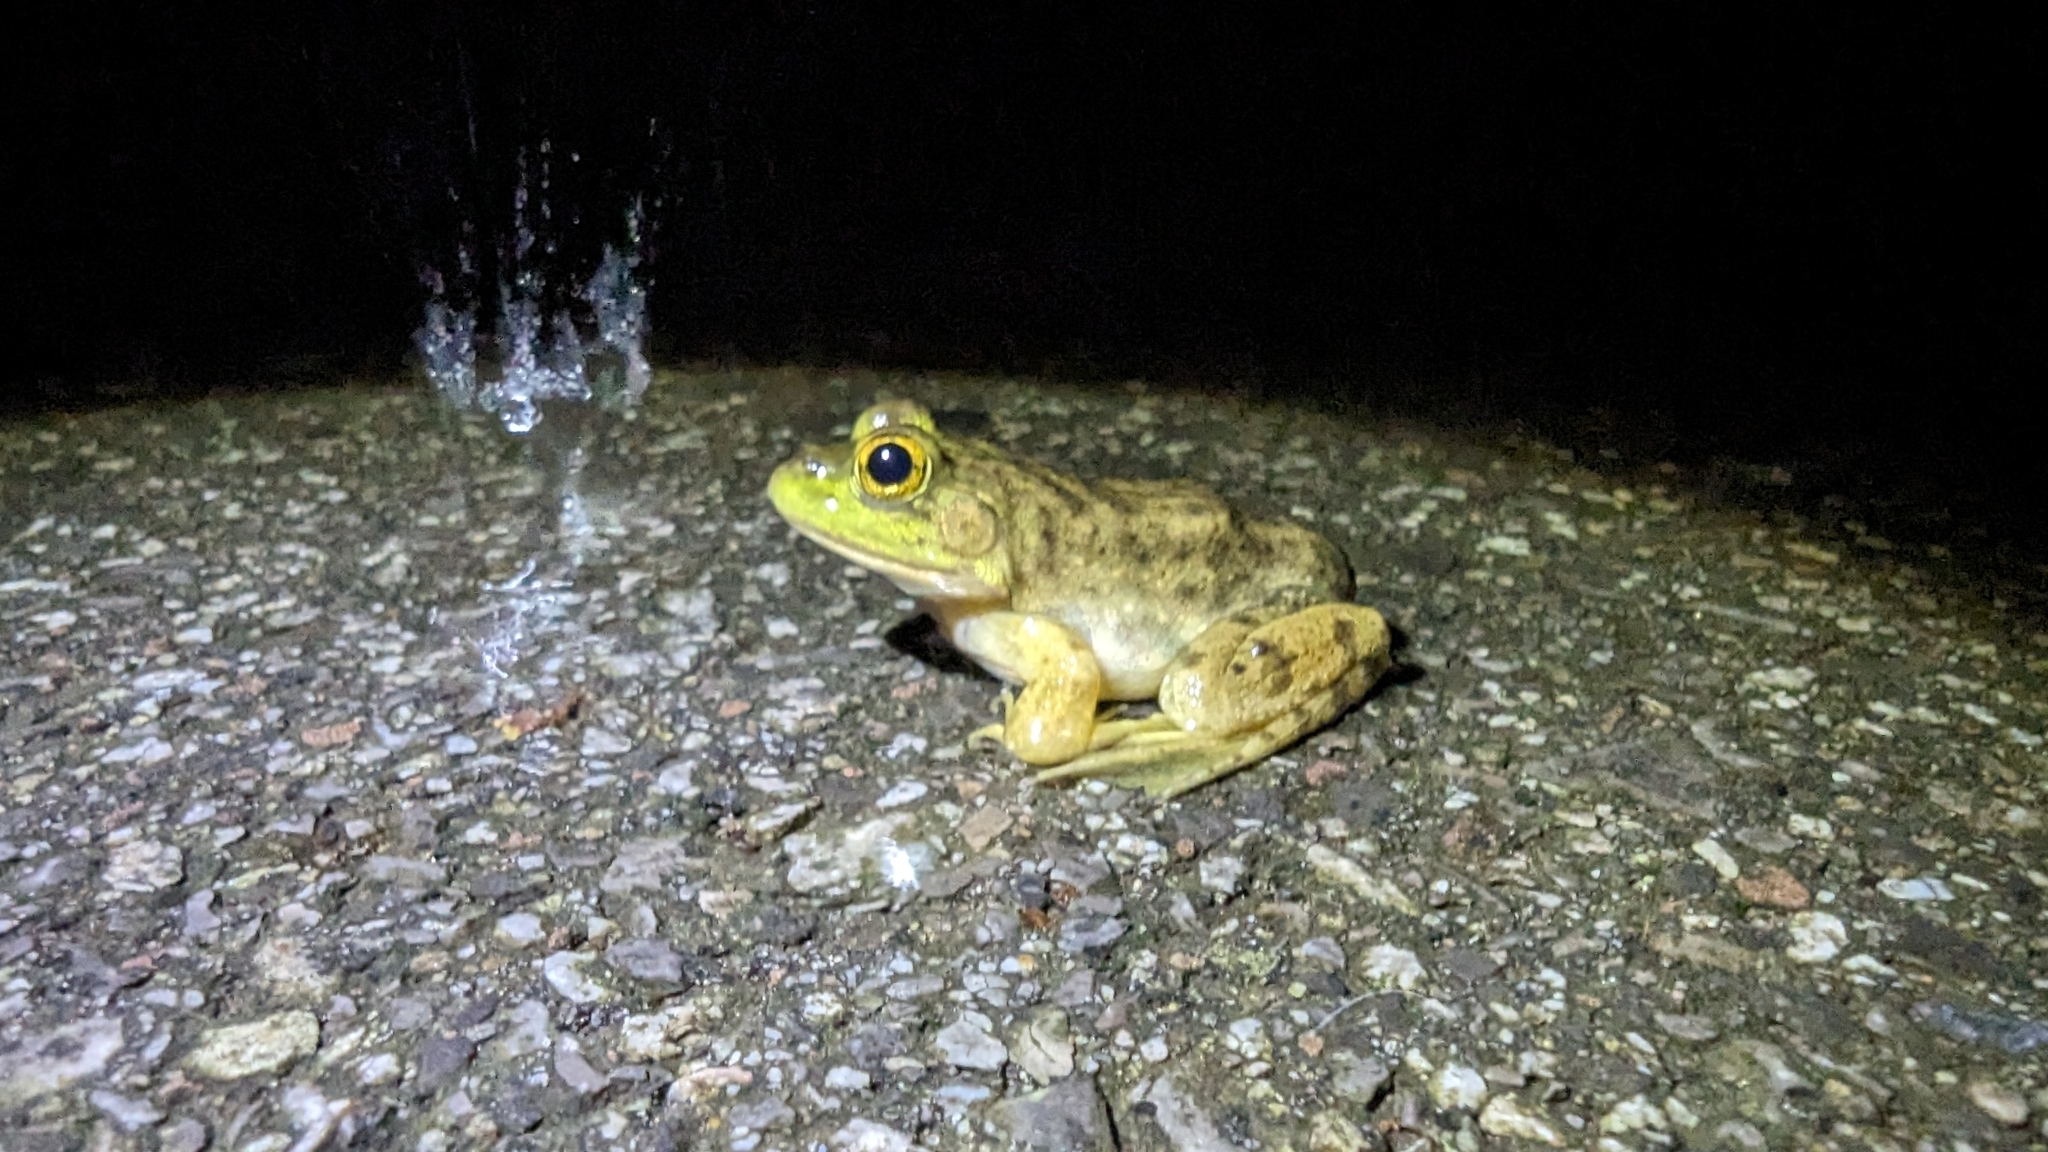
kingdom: Animalia
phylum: Chordata
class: Amphibia
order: Anura
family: Ranidae
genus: Lithobates
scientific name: Lithobates catesbeianus
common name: American bullfrog
